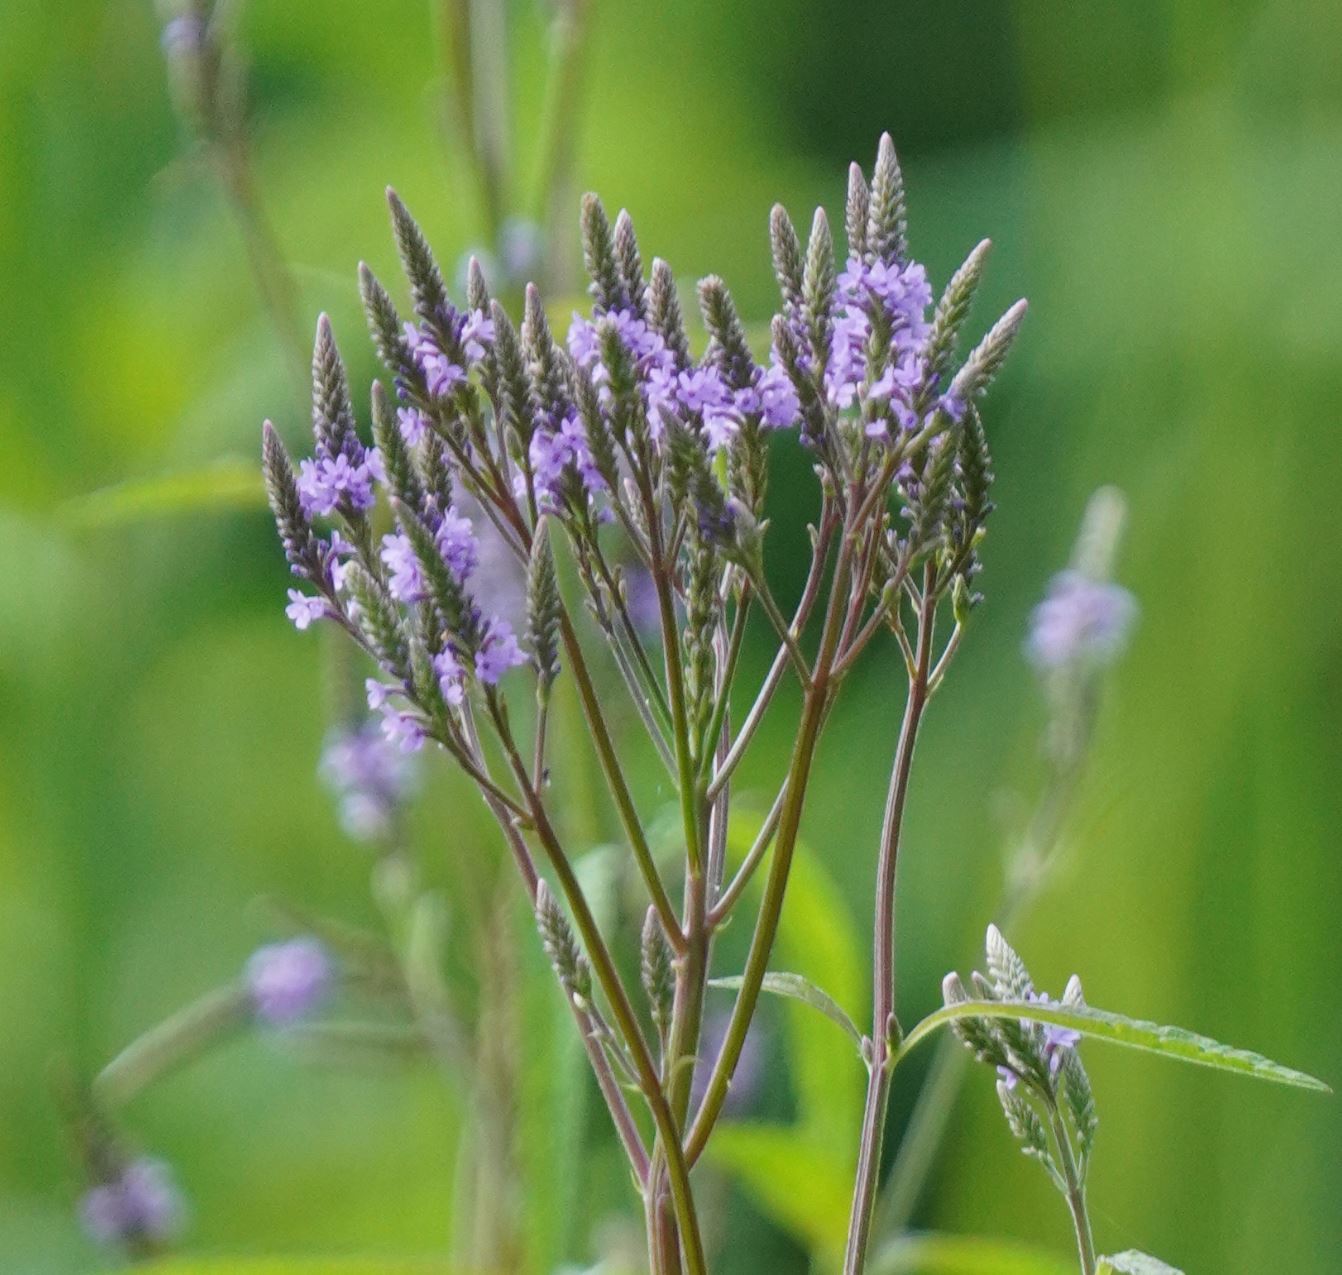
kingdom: Plantae
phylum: Tracheophyta
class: Magnoliopsida
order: Lamiales
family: Verbenaceae
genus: Verbena
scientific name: Verbena hastata
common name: American blue vervain
